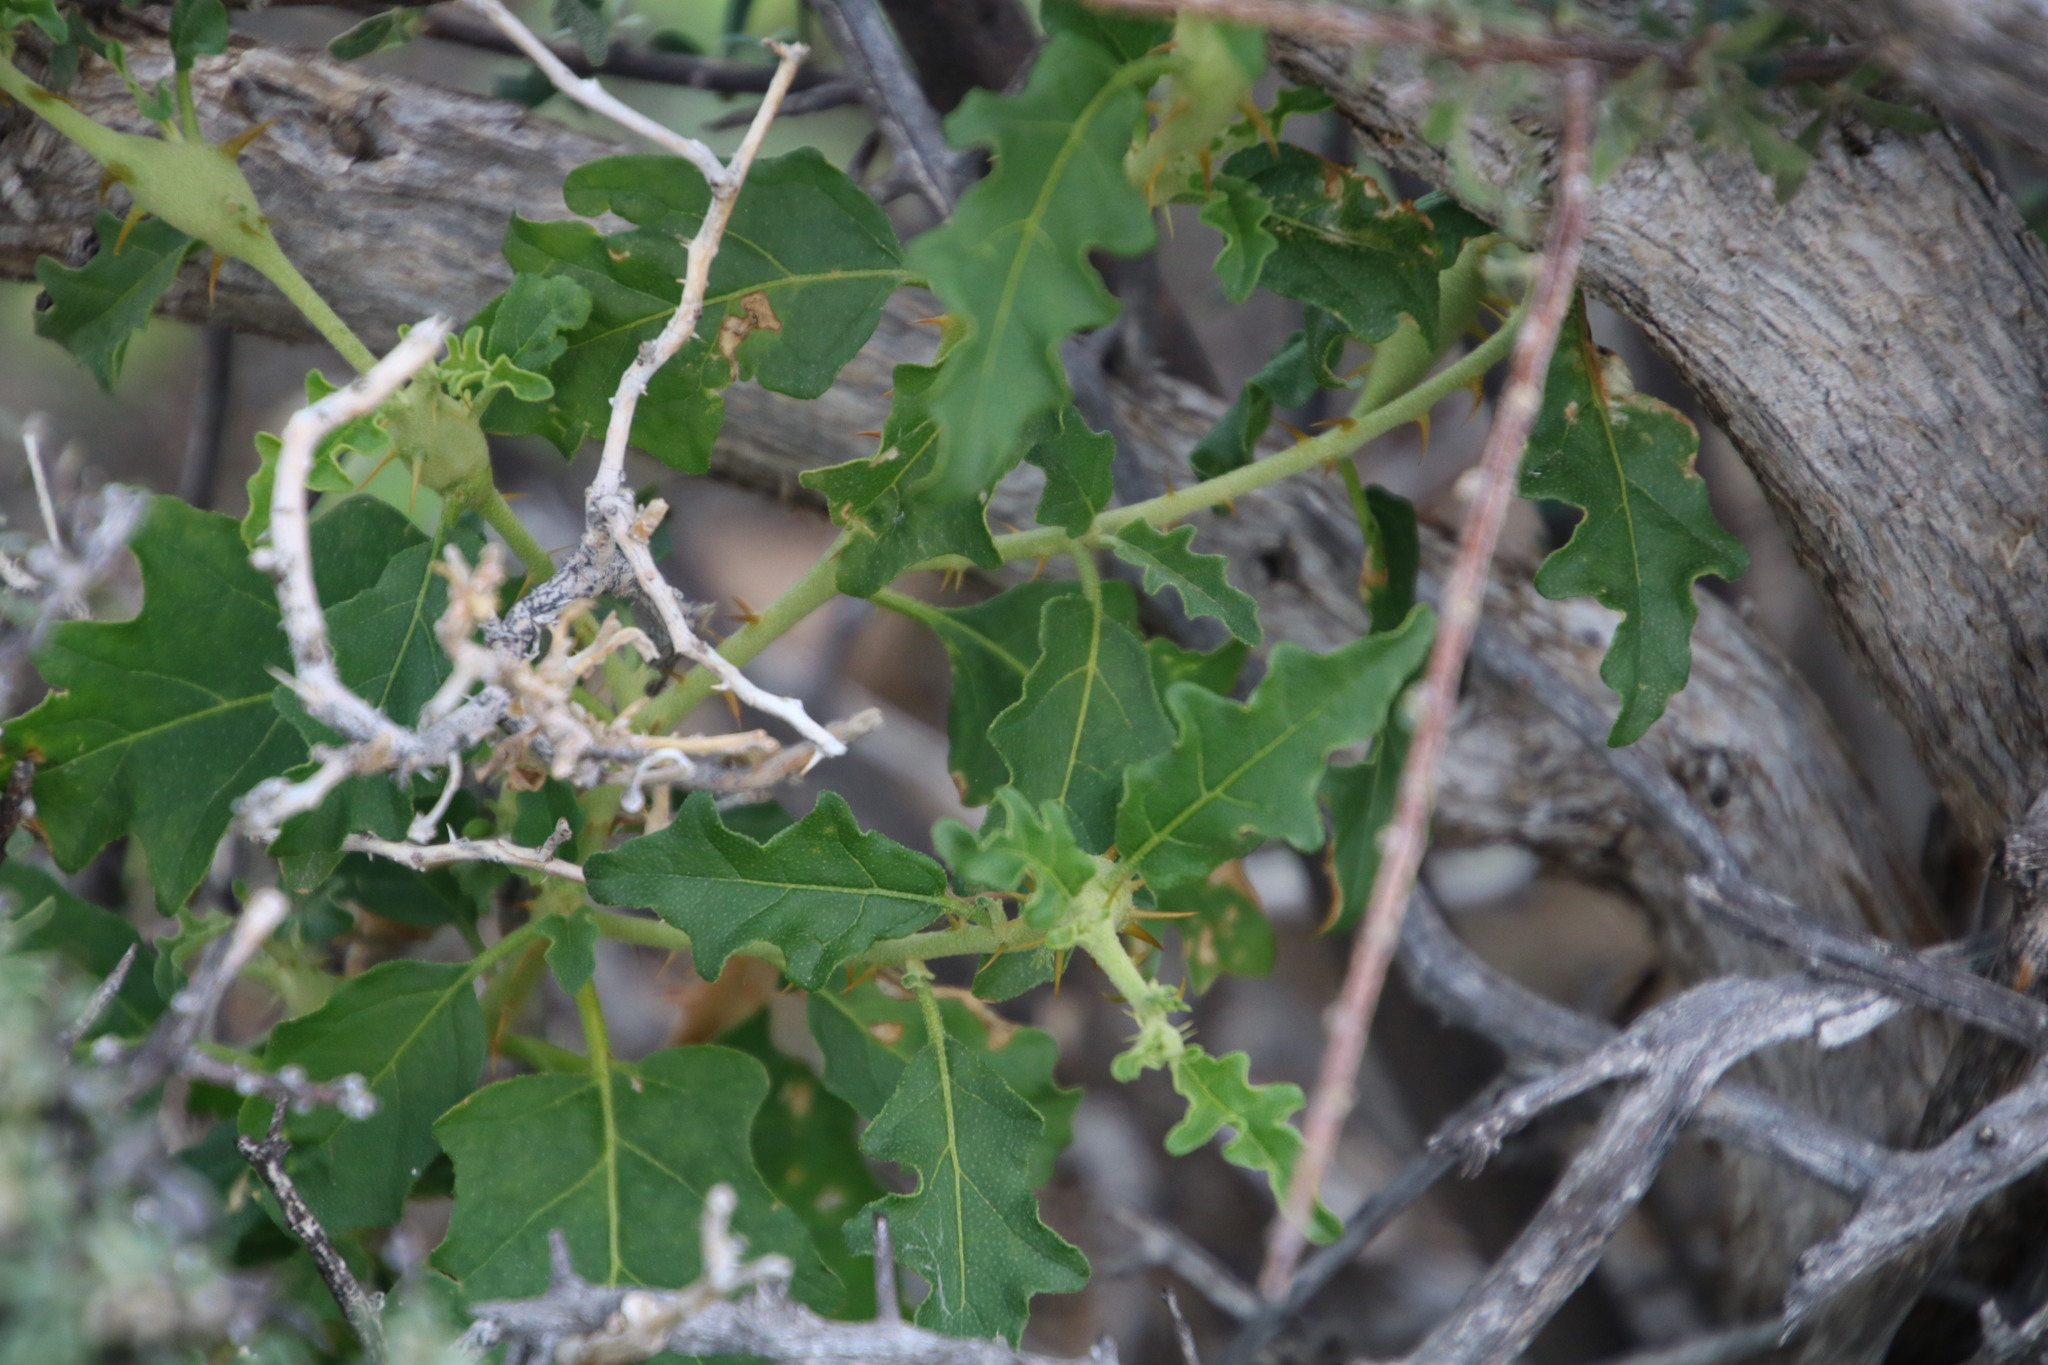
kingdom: Plantae
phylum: Tracheophyta
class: Magnoliopsida
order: Solanales
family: Solanaceae
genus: Solanum
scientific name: Solanum capense
